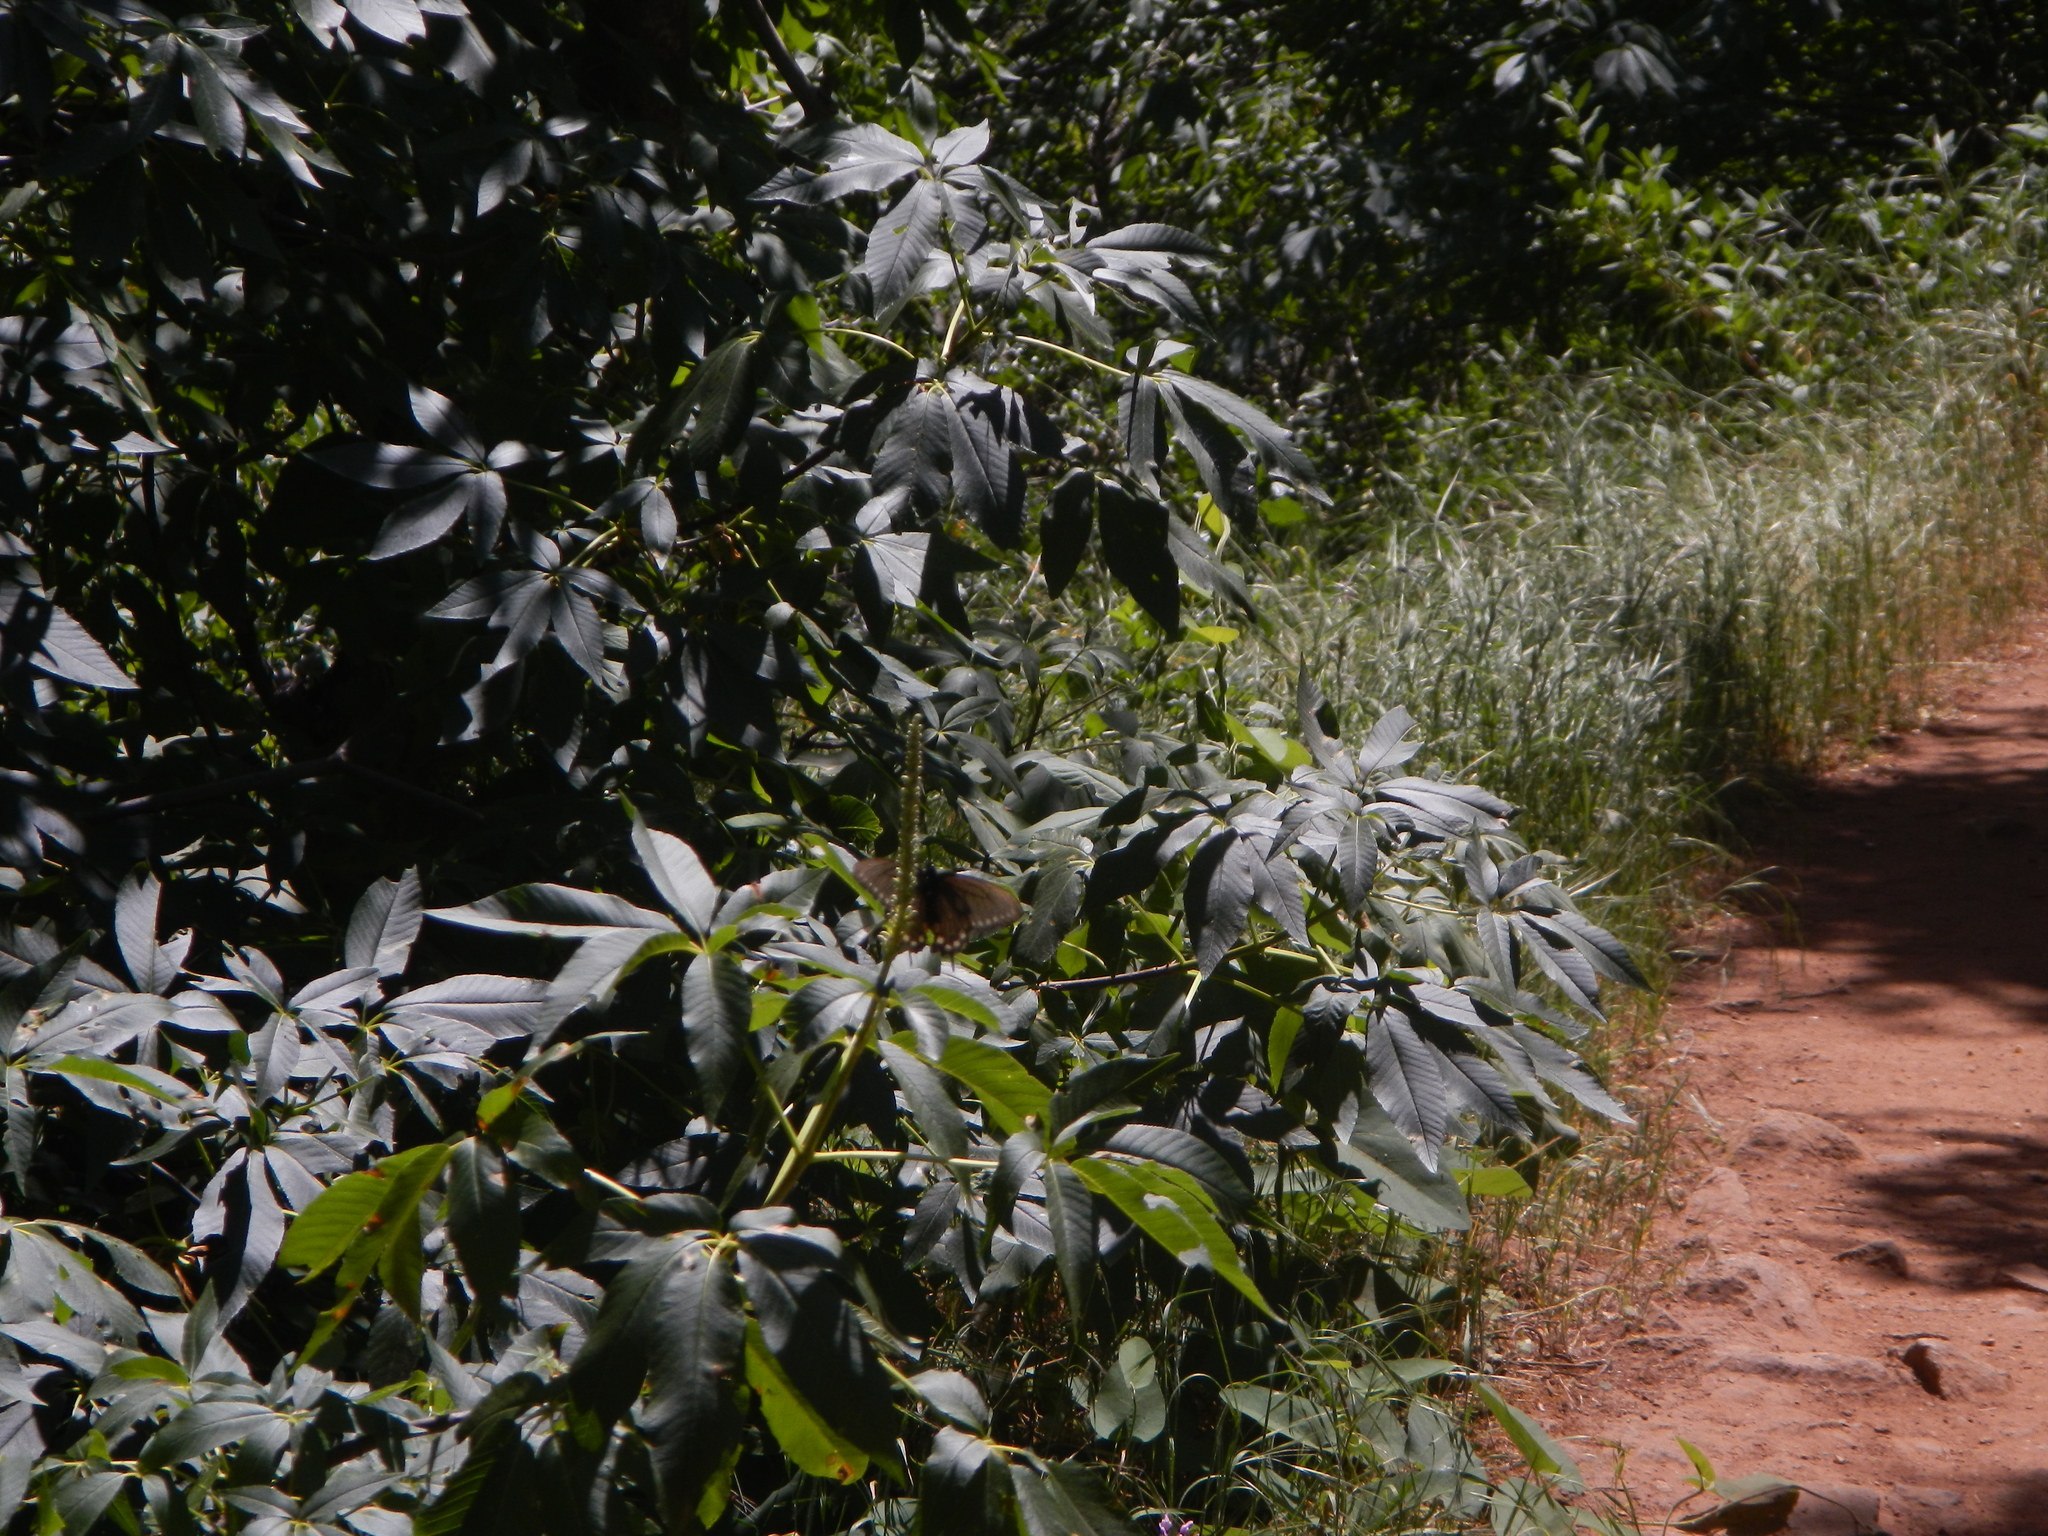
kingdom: Animalia
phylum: Arthropoda
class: Insecta
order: Lepidoptera
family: Papilionidae
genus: Battus
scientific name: Battus philenor
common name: Pipevine swallowtail
